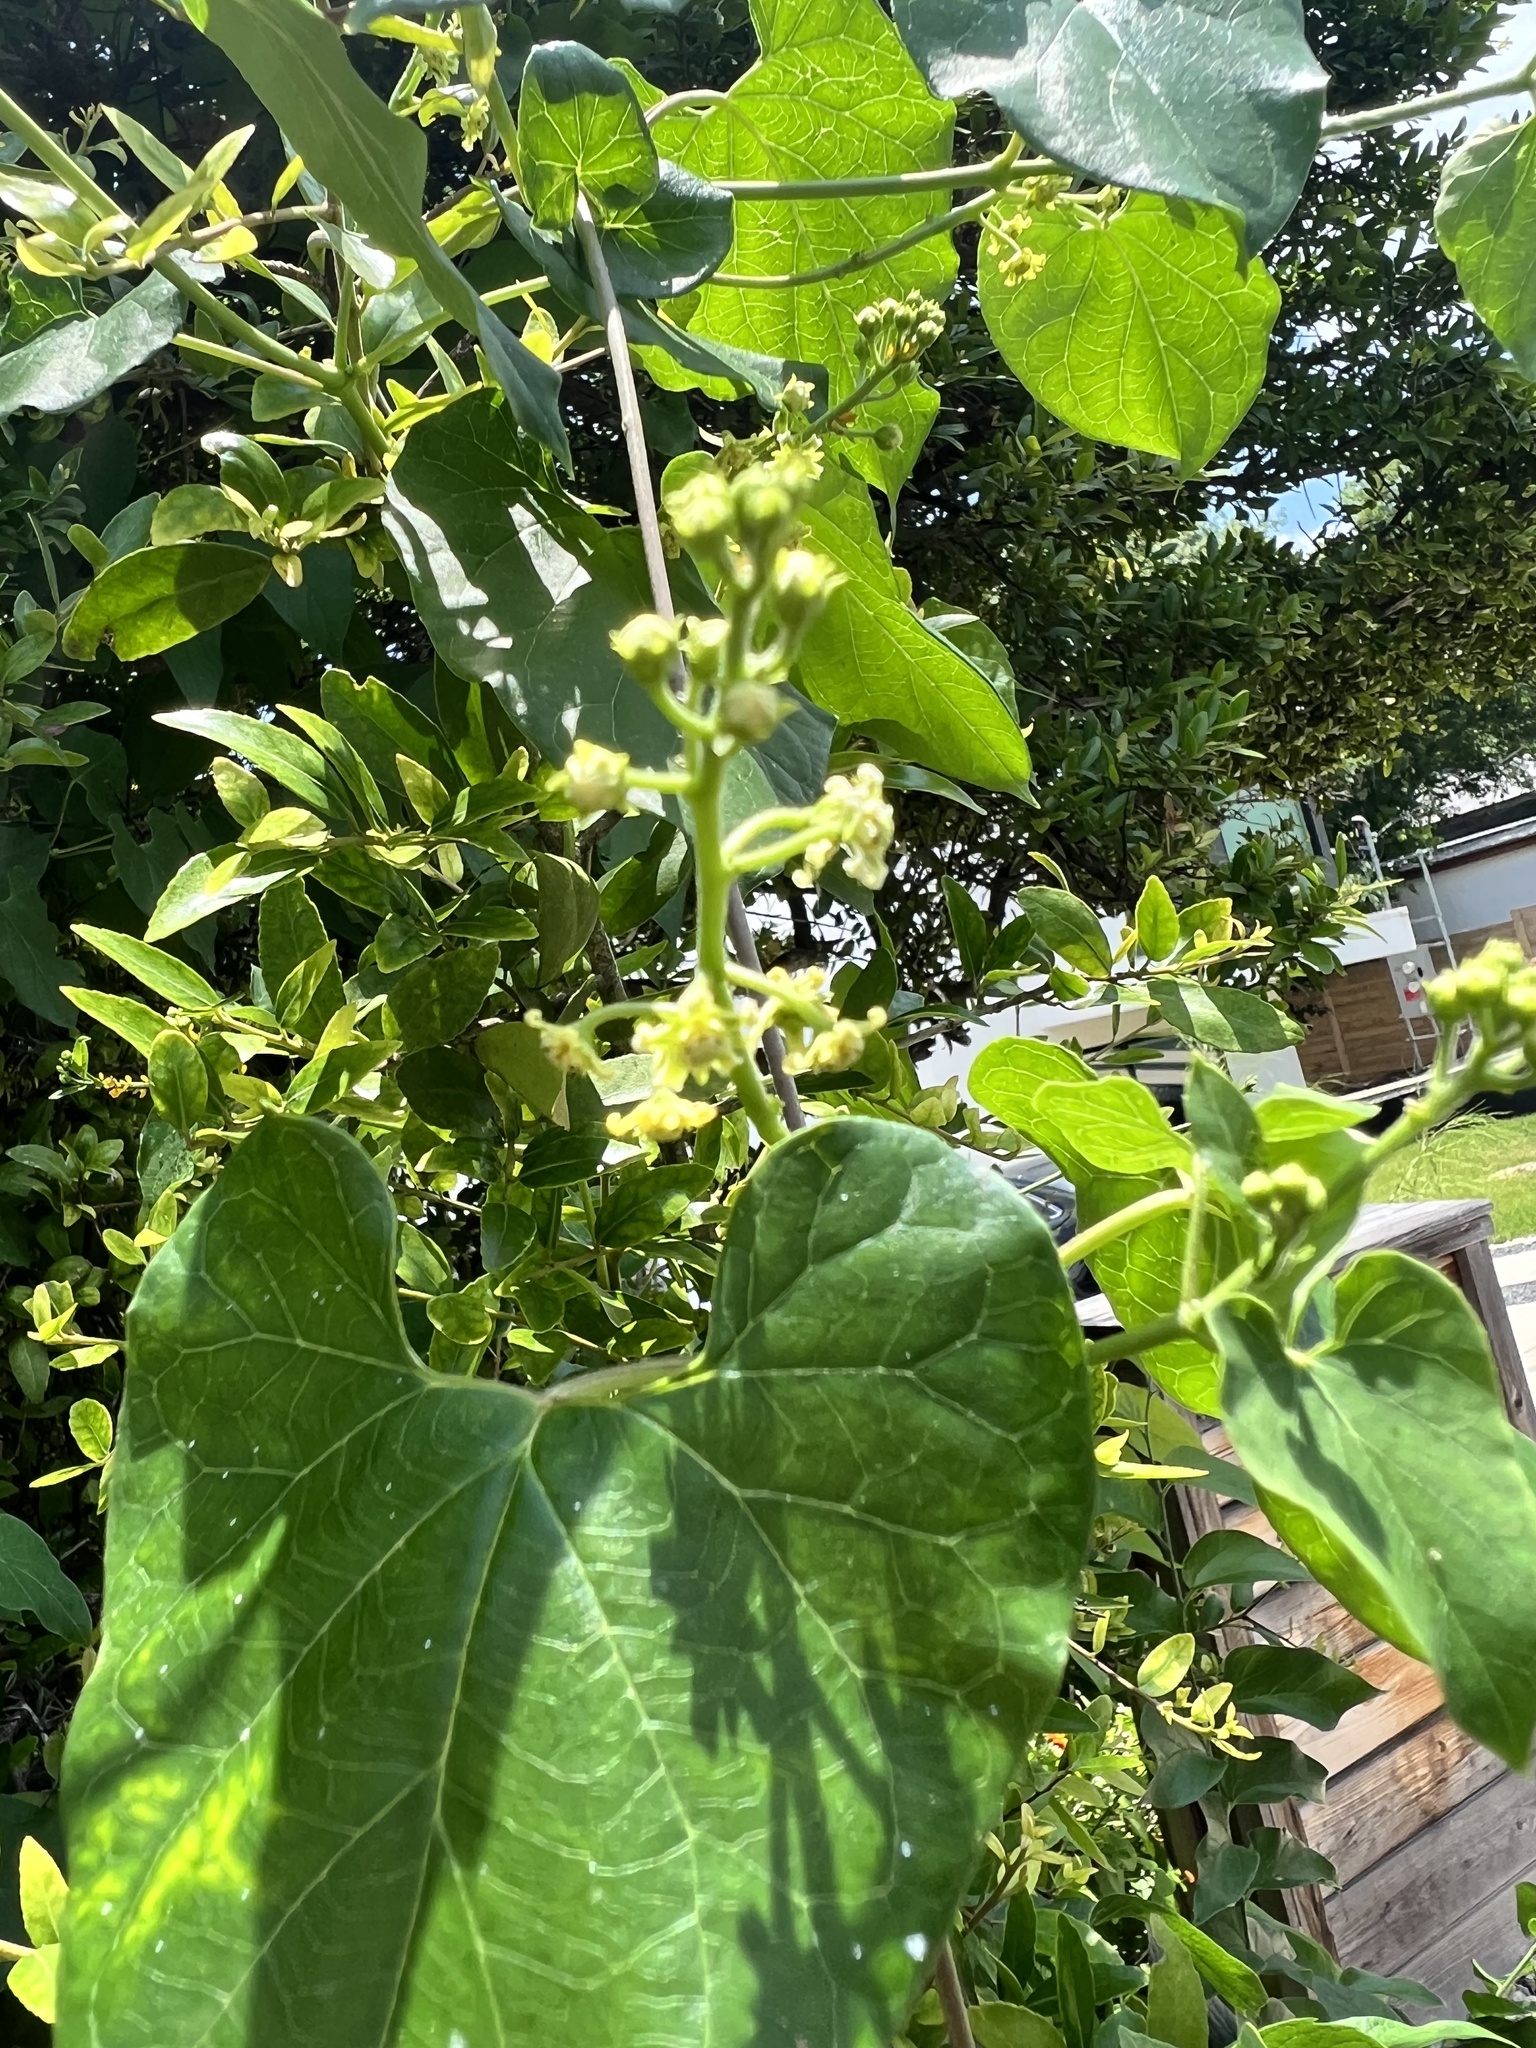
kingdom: Plantae
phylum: Tracheophyta
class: Magnoliopsida
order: Gentianales
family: Apocynaceae
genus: Cynanchum
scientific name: Cynanchum racemosum
